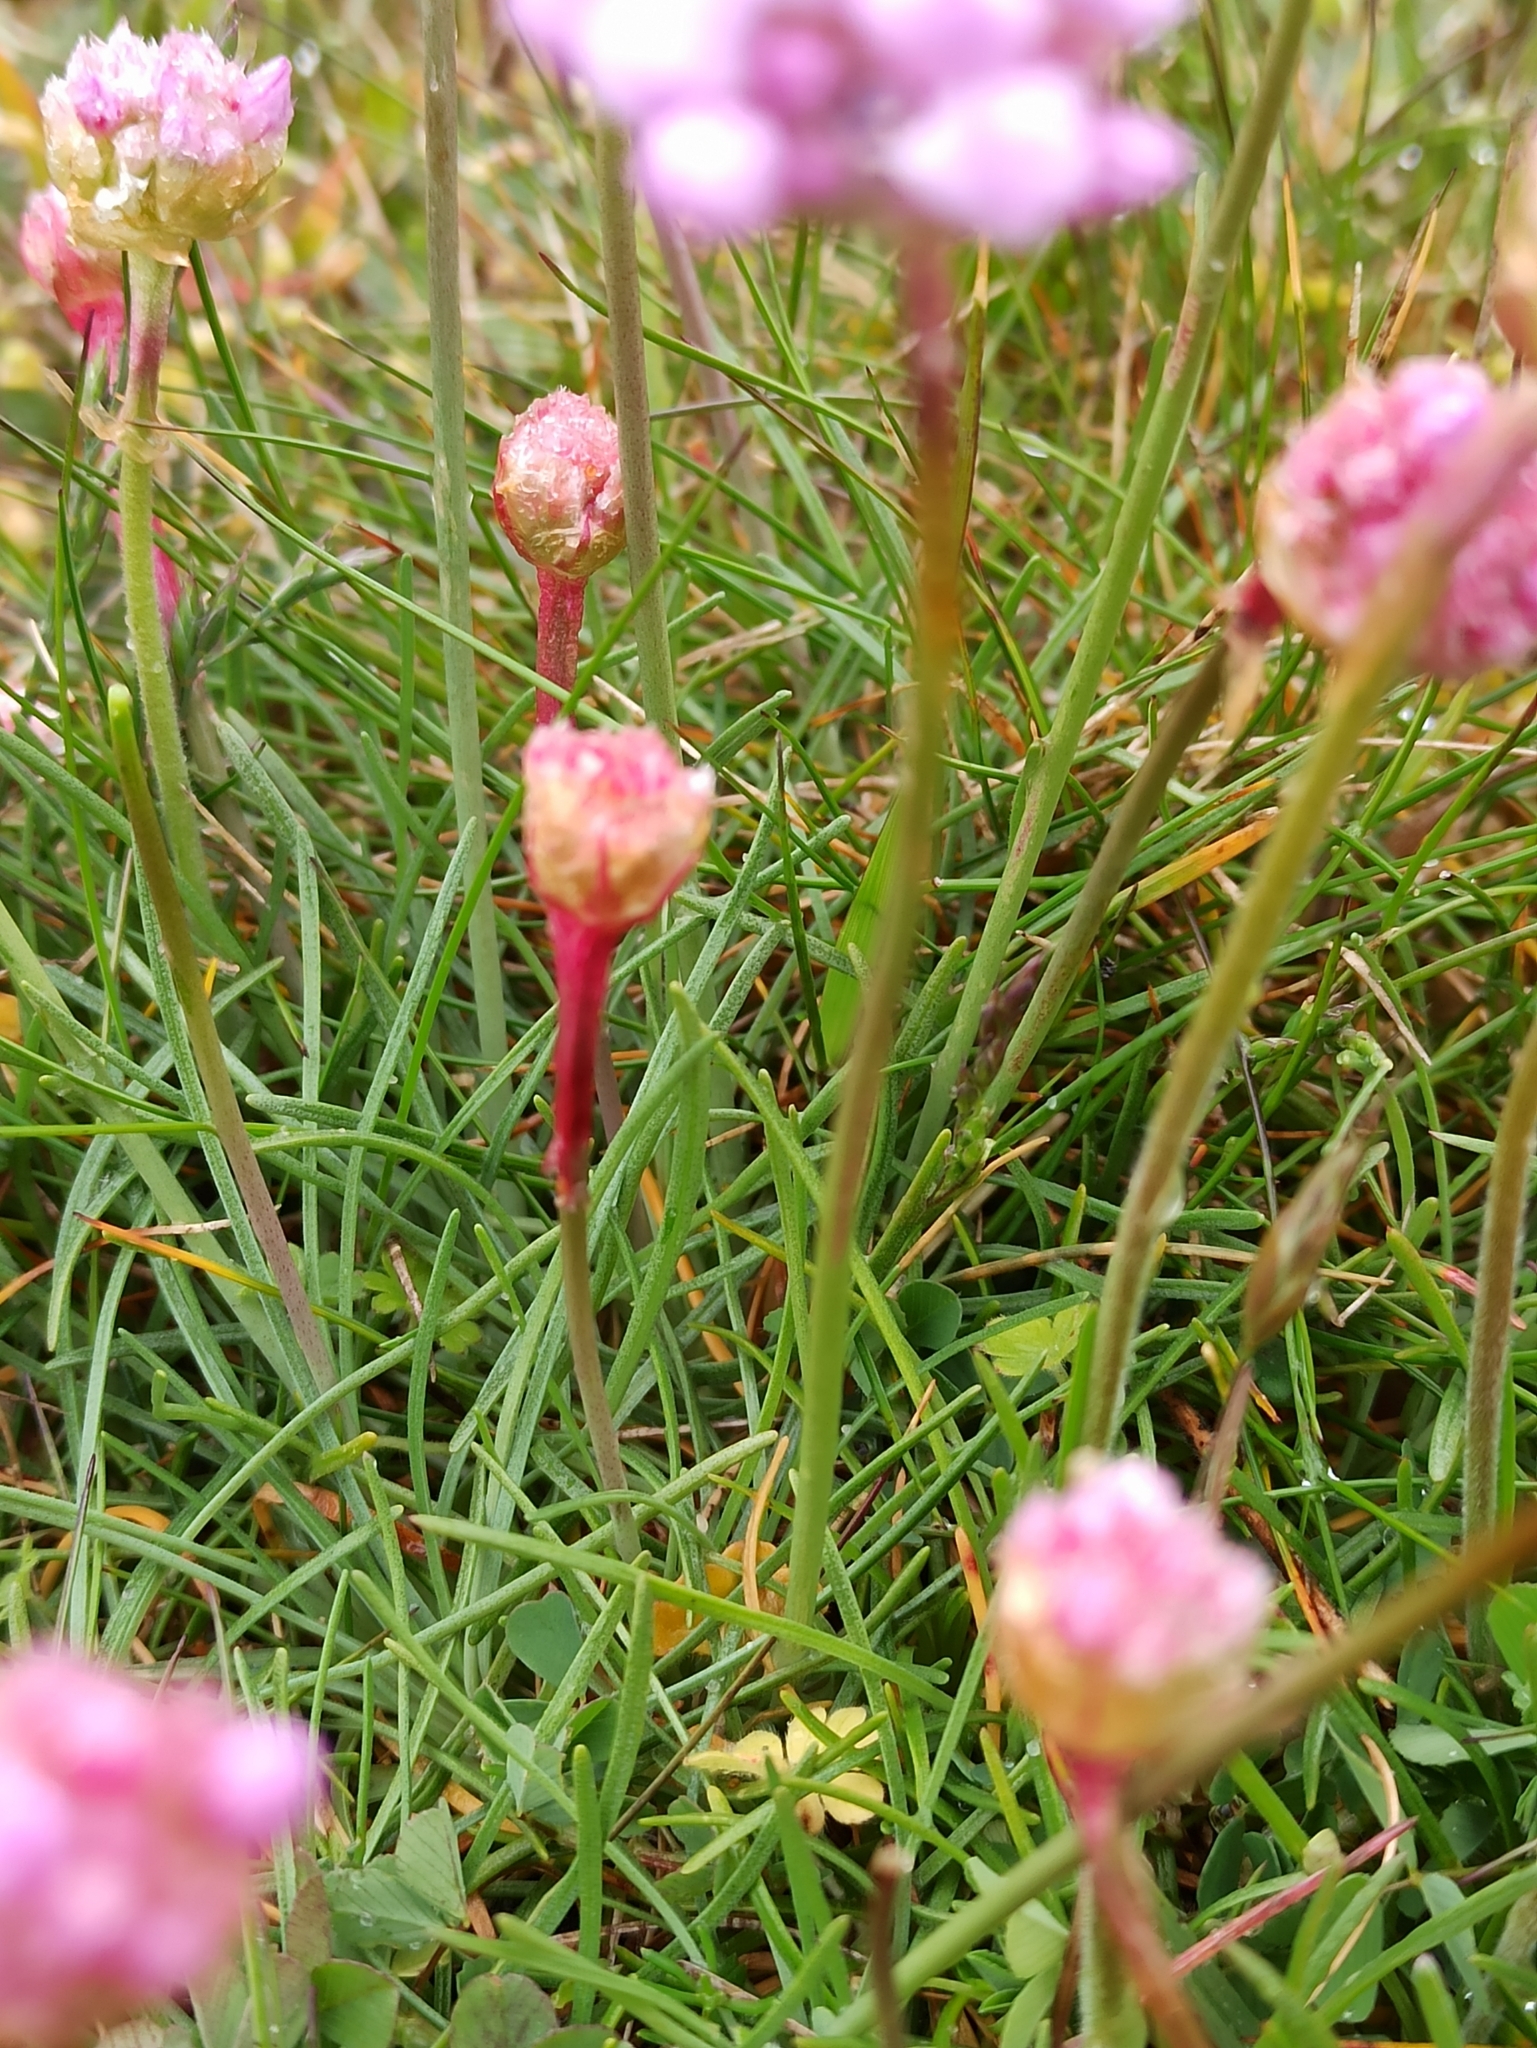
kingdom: Plantae
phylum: Tracheophyta
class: Magnoliopsida
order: Caryophyllales
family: Plumbaginaceae
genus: Armeria
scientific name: Armeria maritima
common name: Thrift
